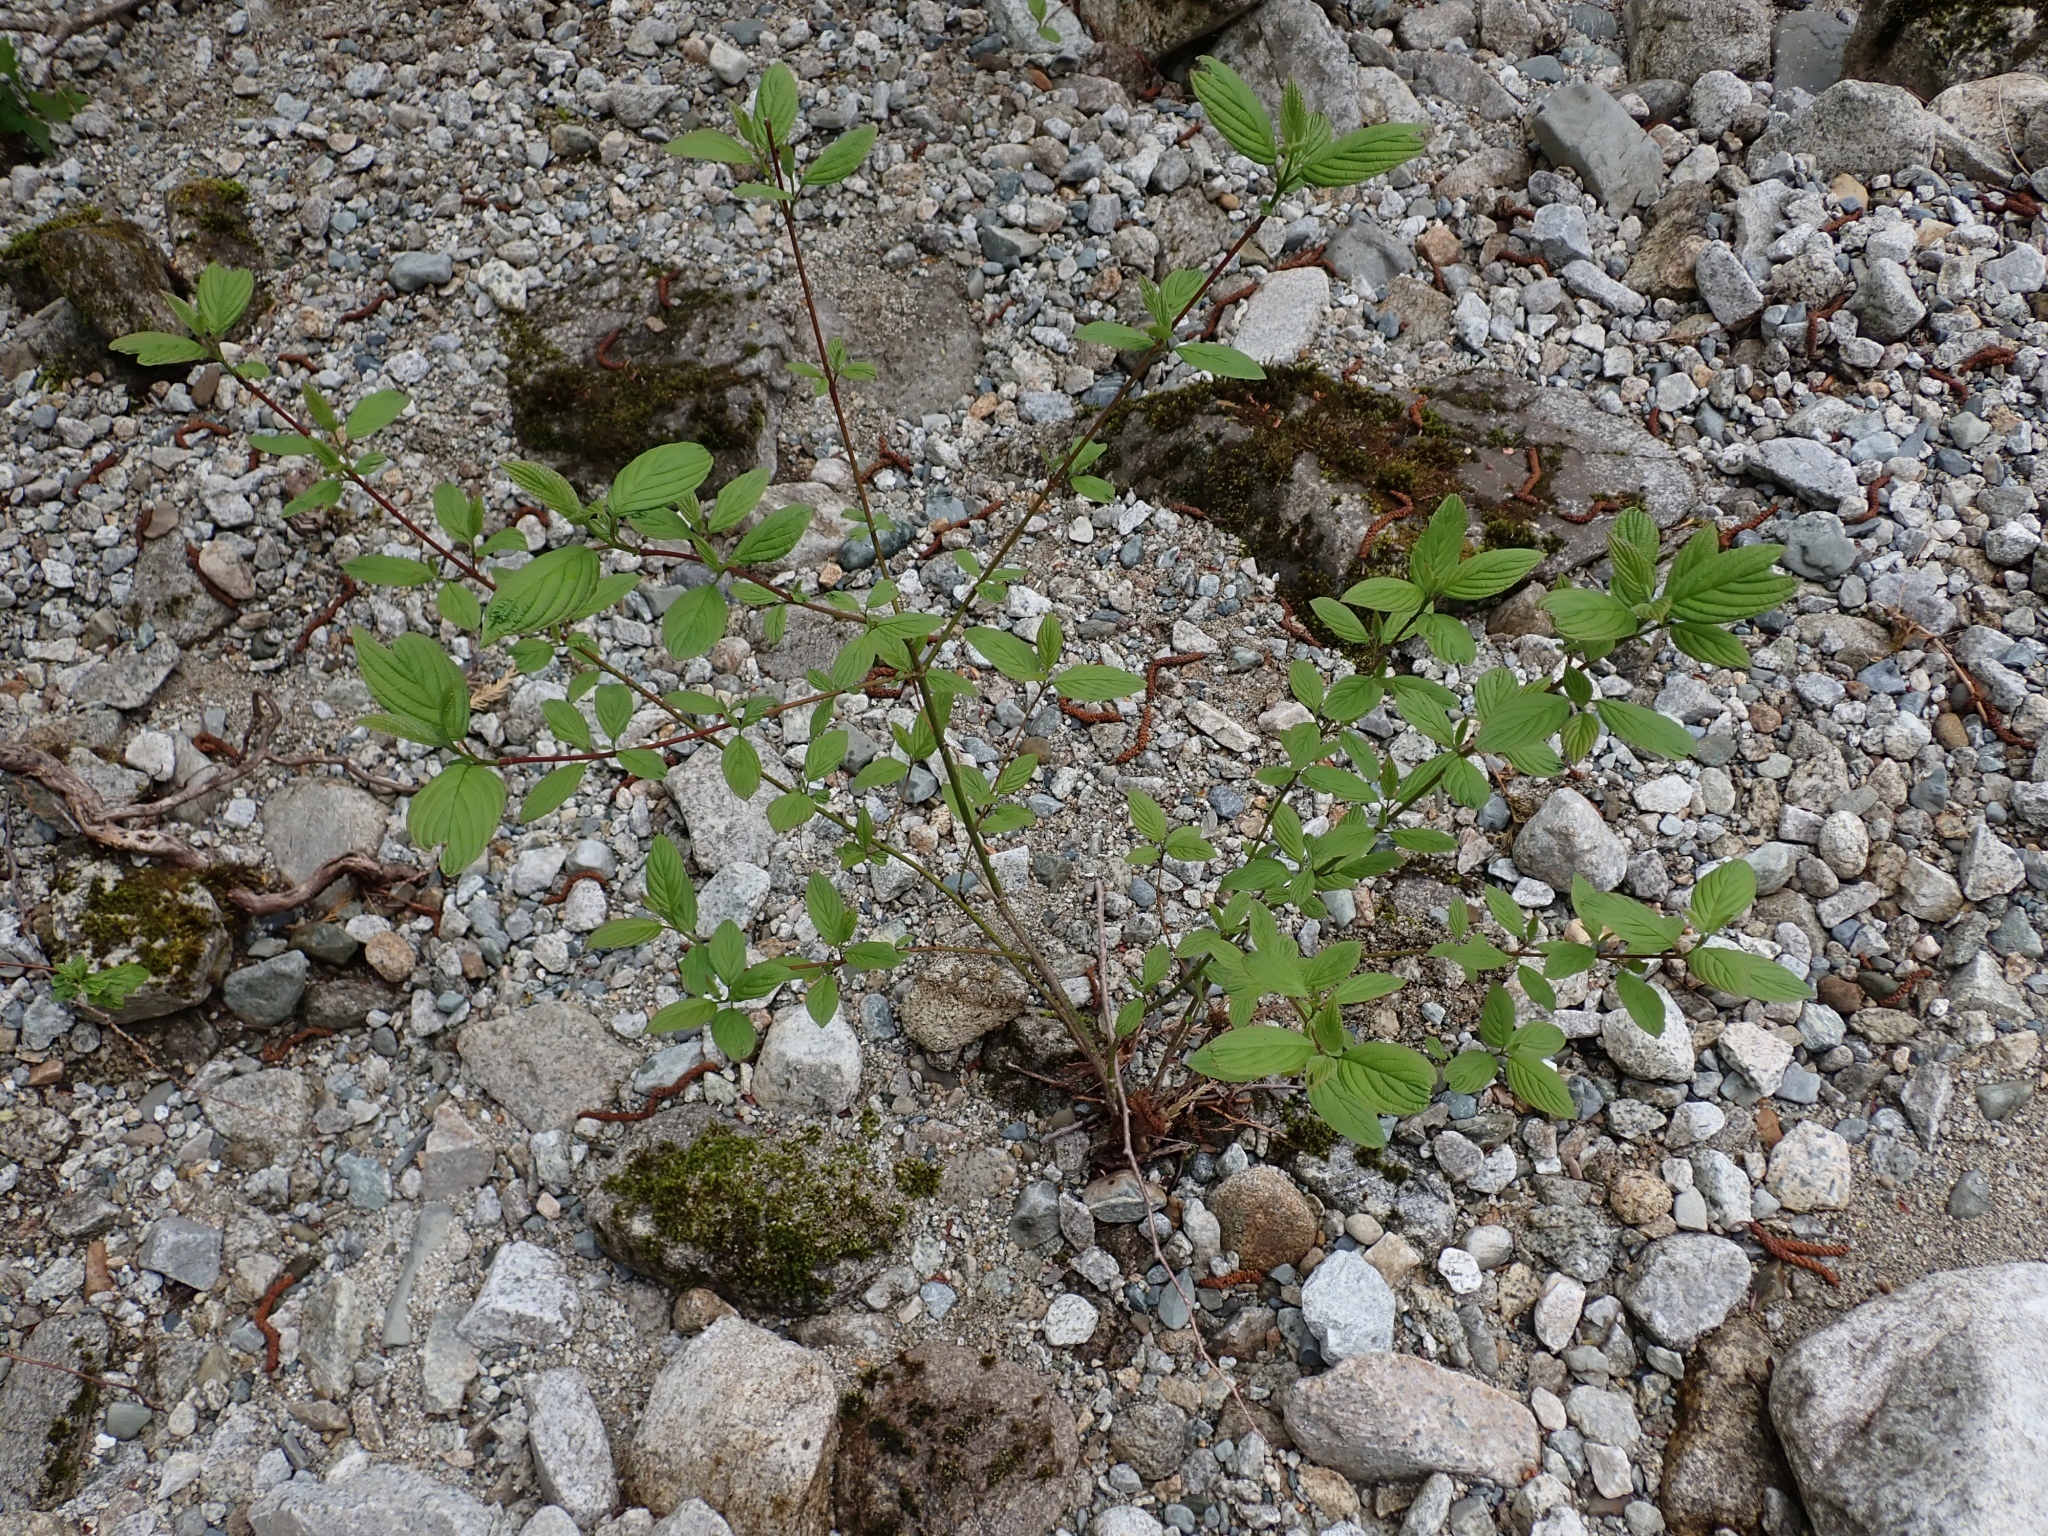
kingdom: Plantae
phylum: Tracheophyta
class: Magnoliopsida
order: Cornales
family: Cornaceae
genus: Cornus
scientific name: Cornus sericea
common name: Red-osier dogwood
